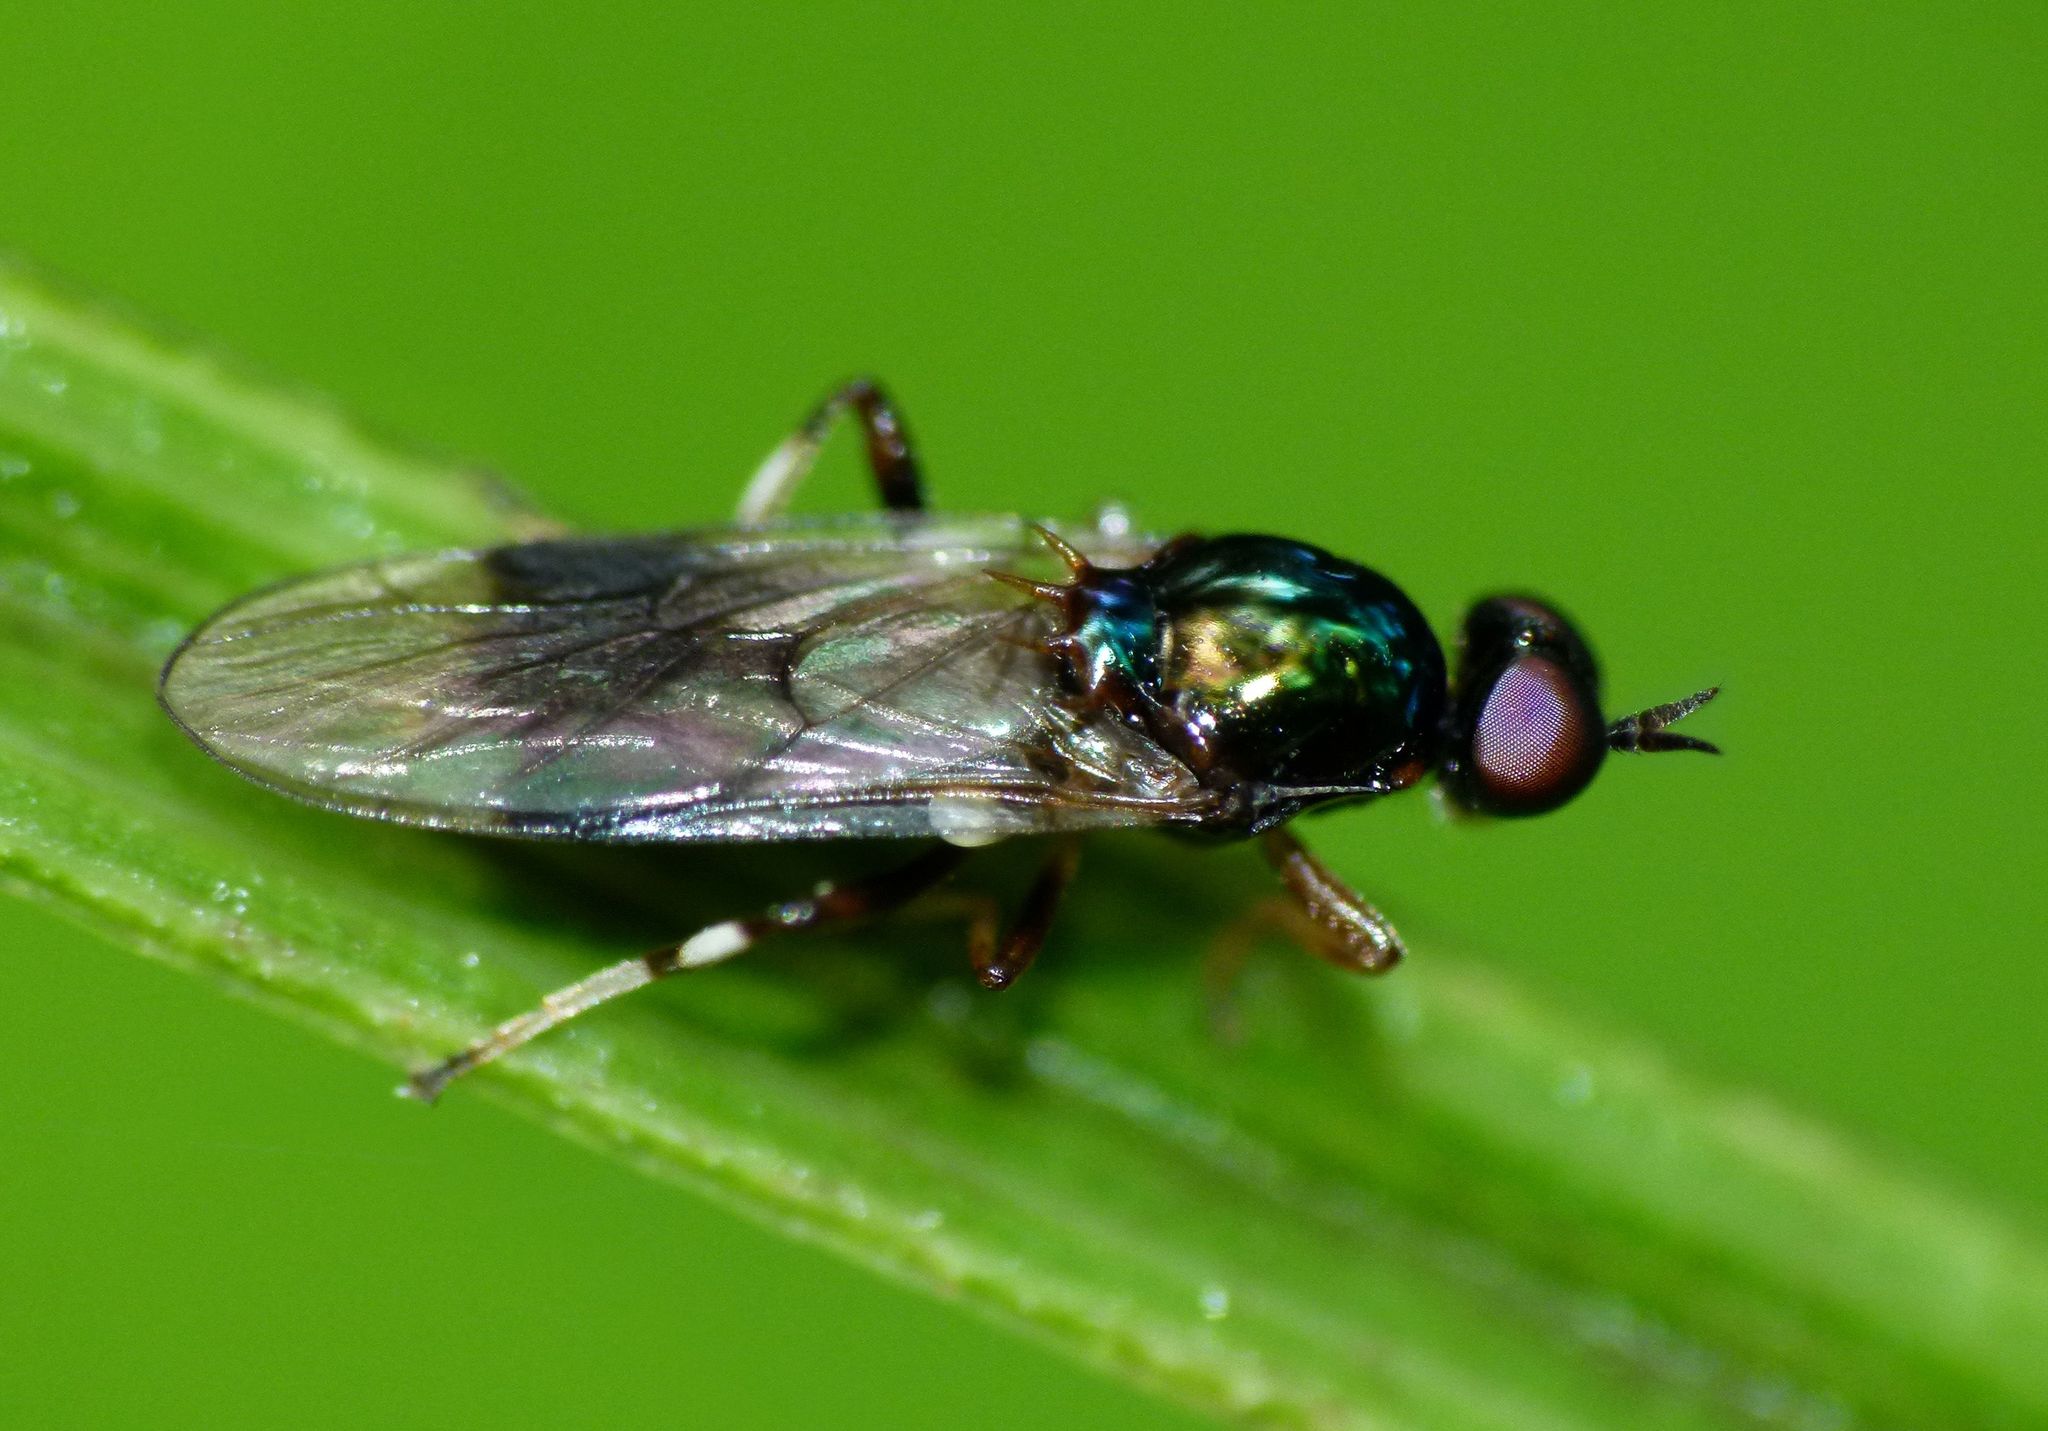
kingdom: Animalia
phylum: Arthropoda
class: Insecta
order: Diptera
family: Stratiomyidae
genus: Zealandoberis
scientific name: Zealandoberis lacuans
